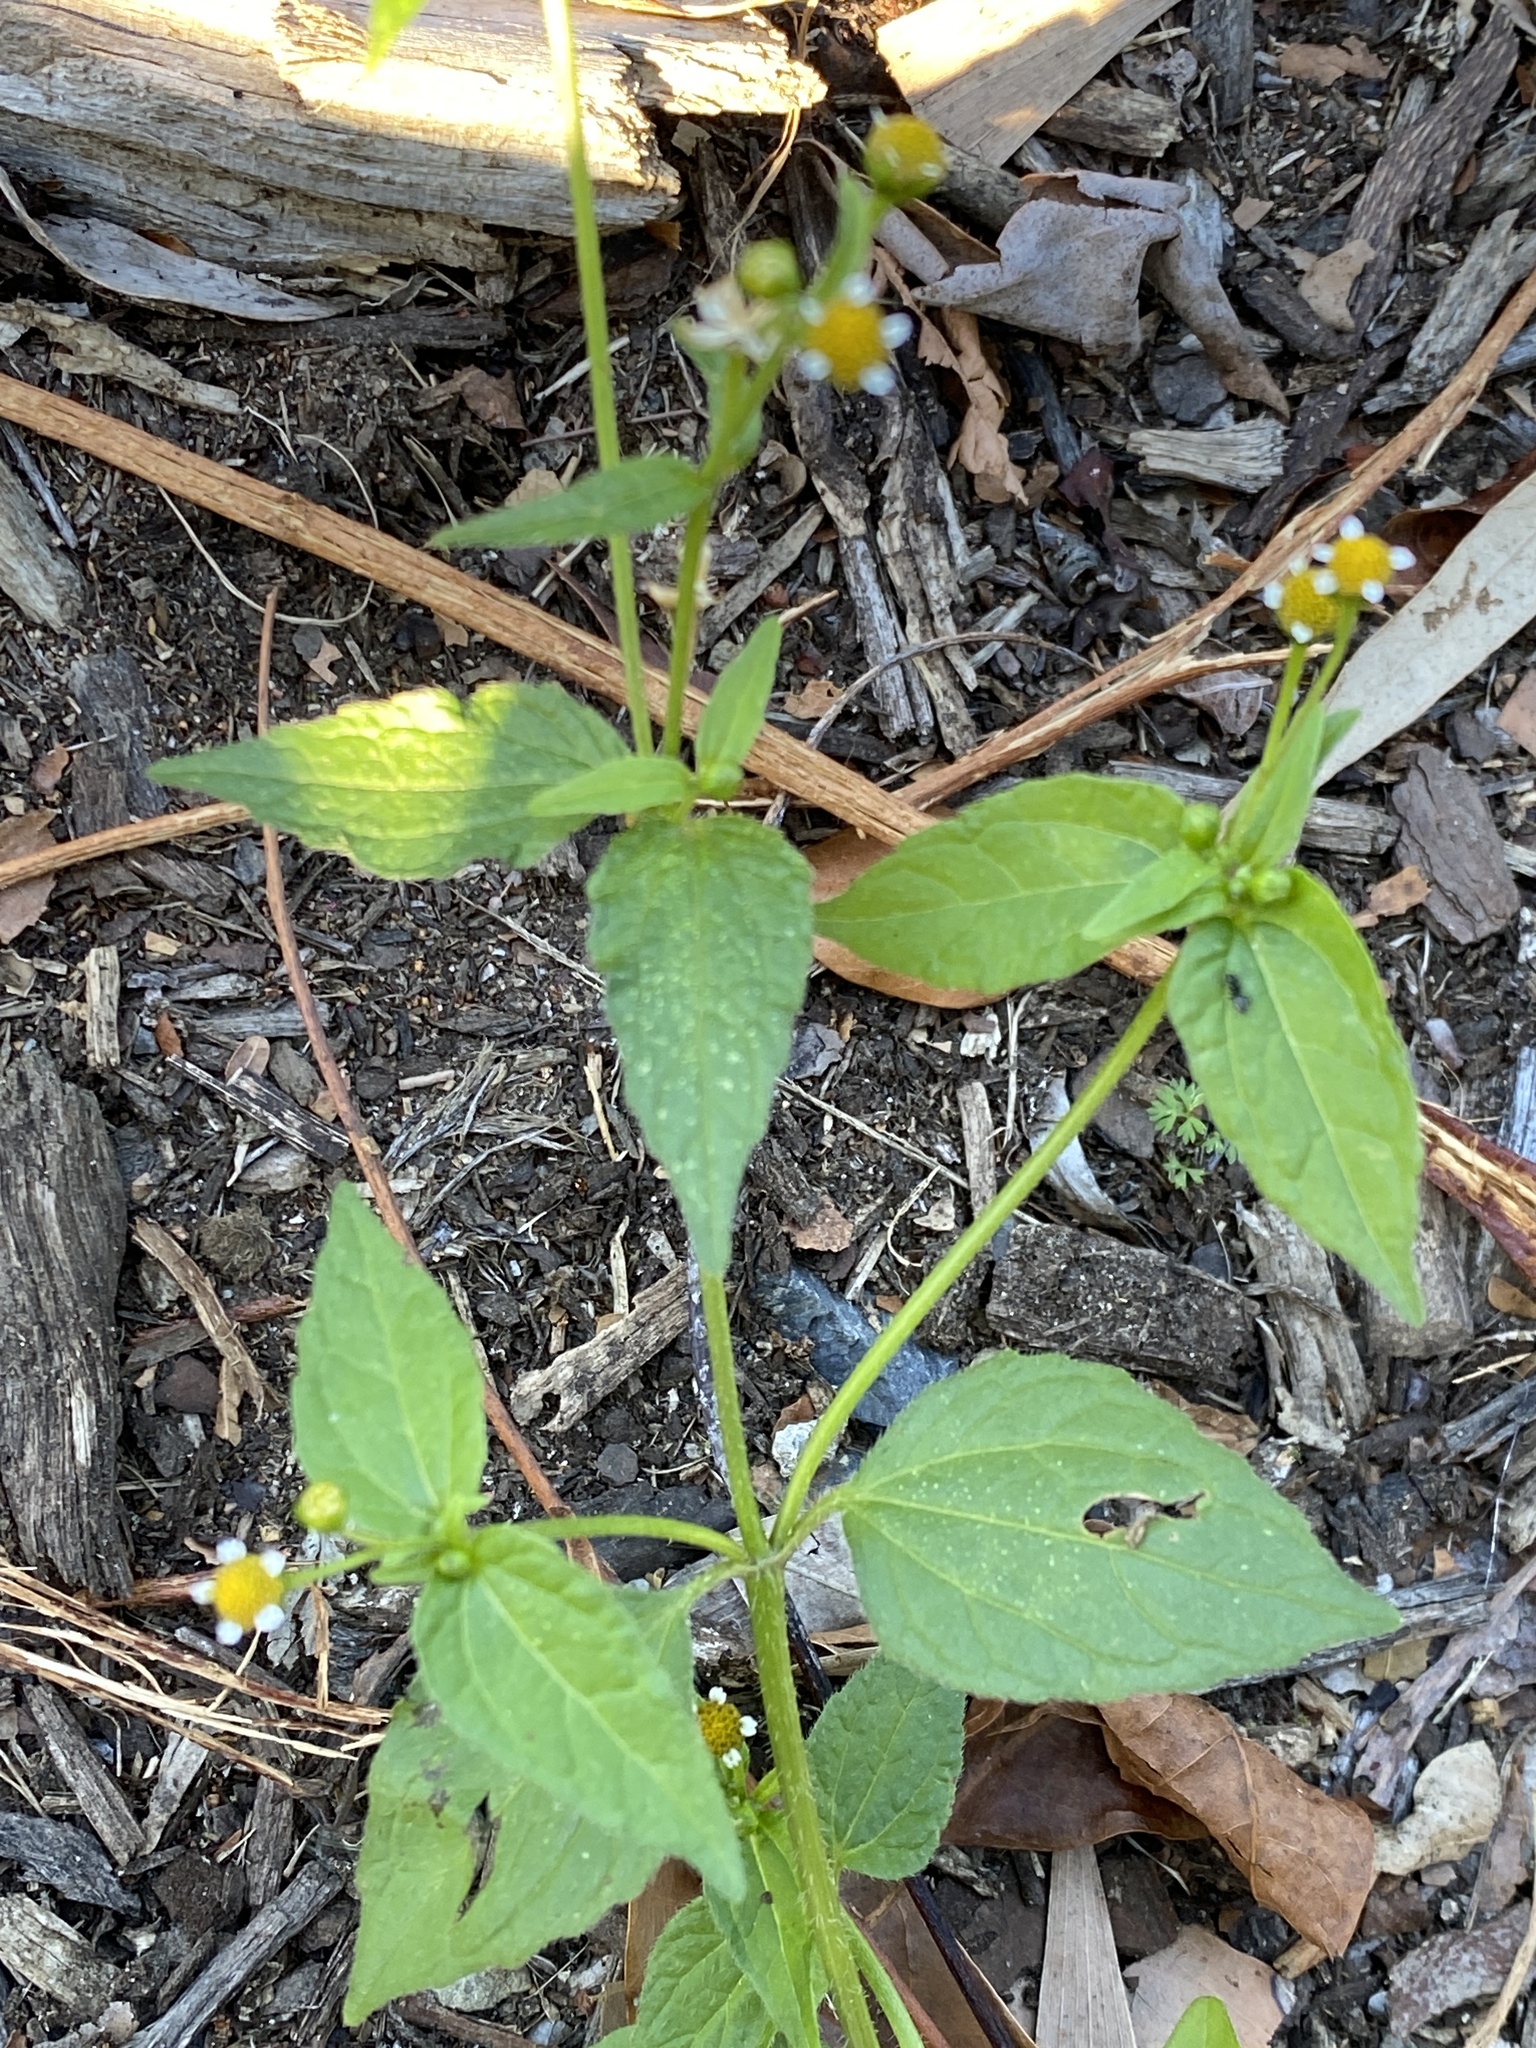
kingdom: Plantae
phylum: Tracheophyta
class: Magnoliopsida
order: Asterales
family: Asteraceae
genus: Galinsoga
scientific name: Galinsoga parviflora
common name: Gallant soldier
